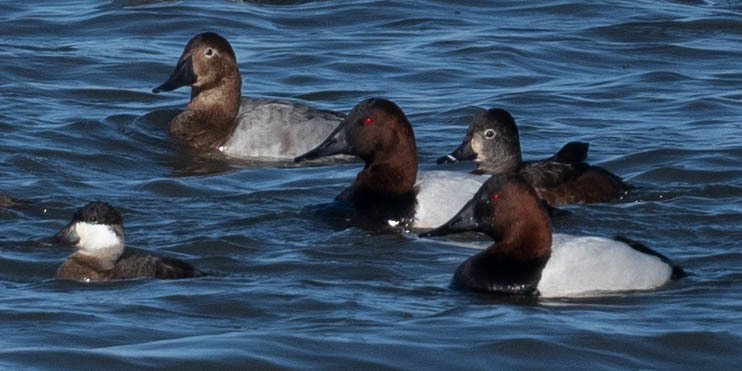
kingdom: Animalia
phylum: Chordata
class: Aves
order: Anseriformes
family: Anatidae
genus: Aythya
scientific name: Aythya valisineria
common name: Canvasback
